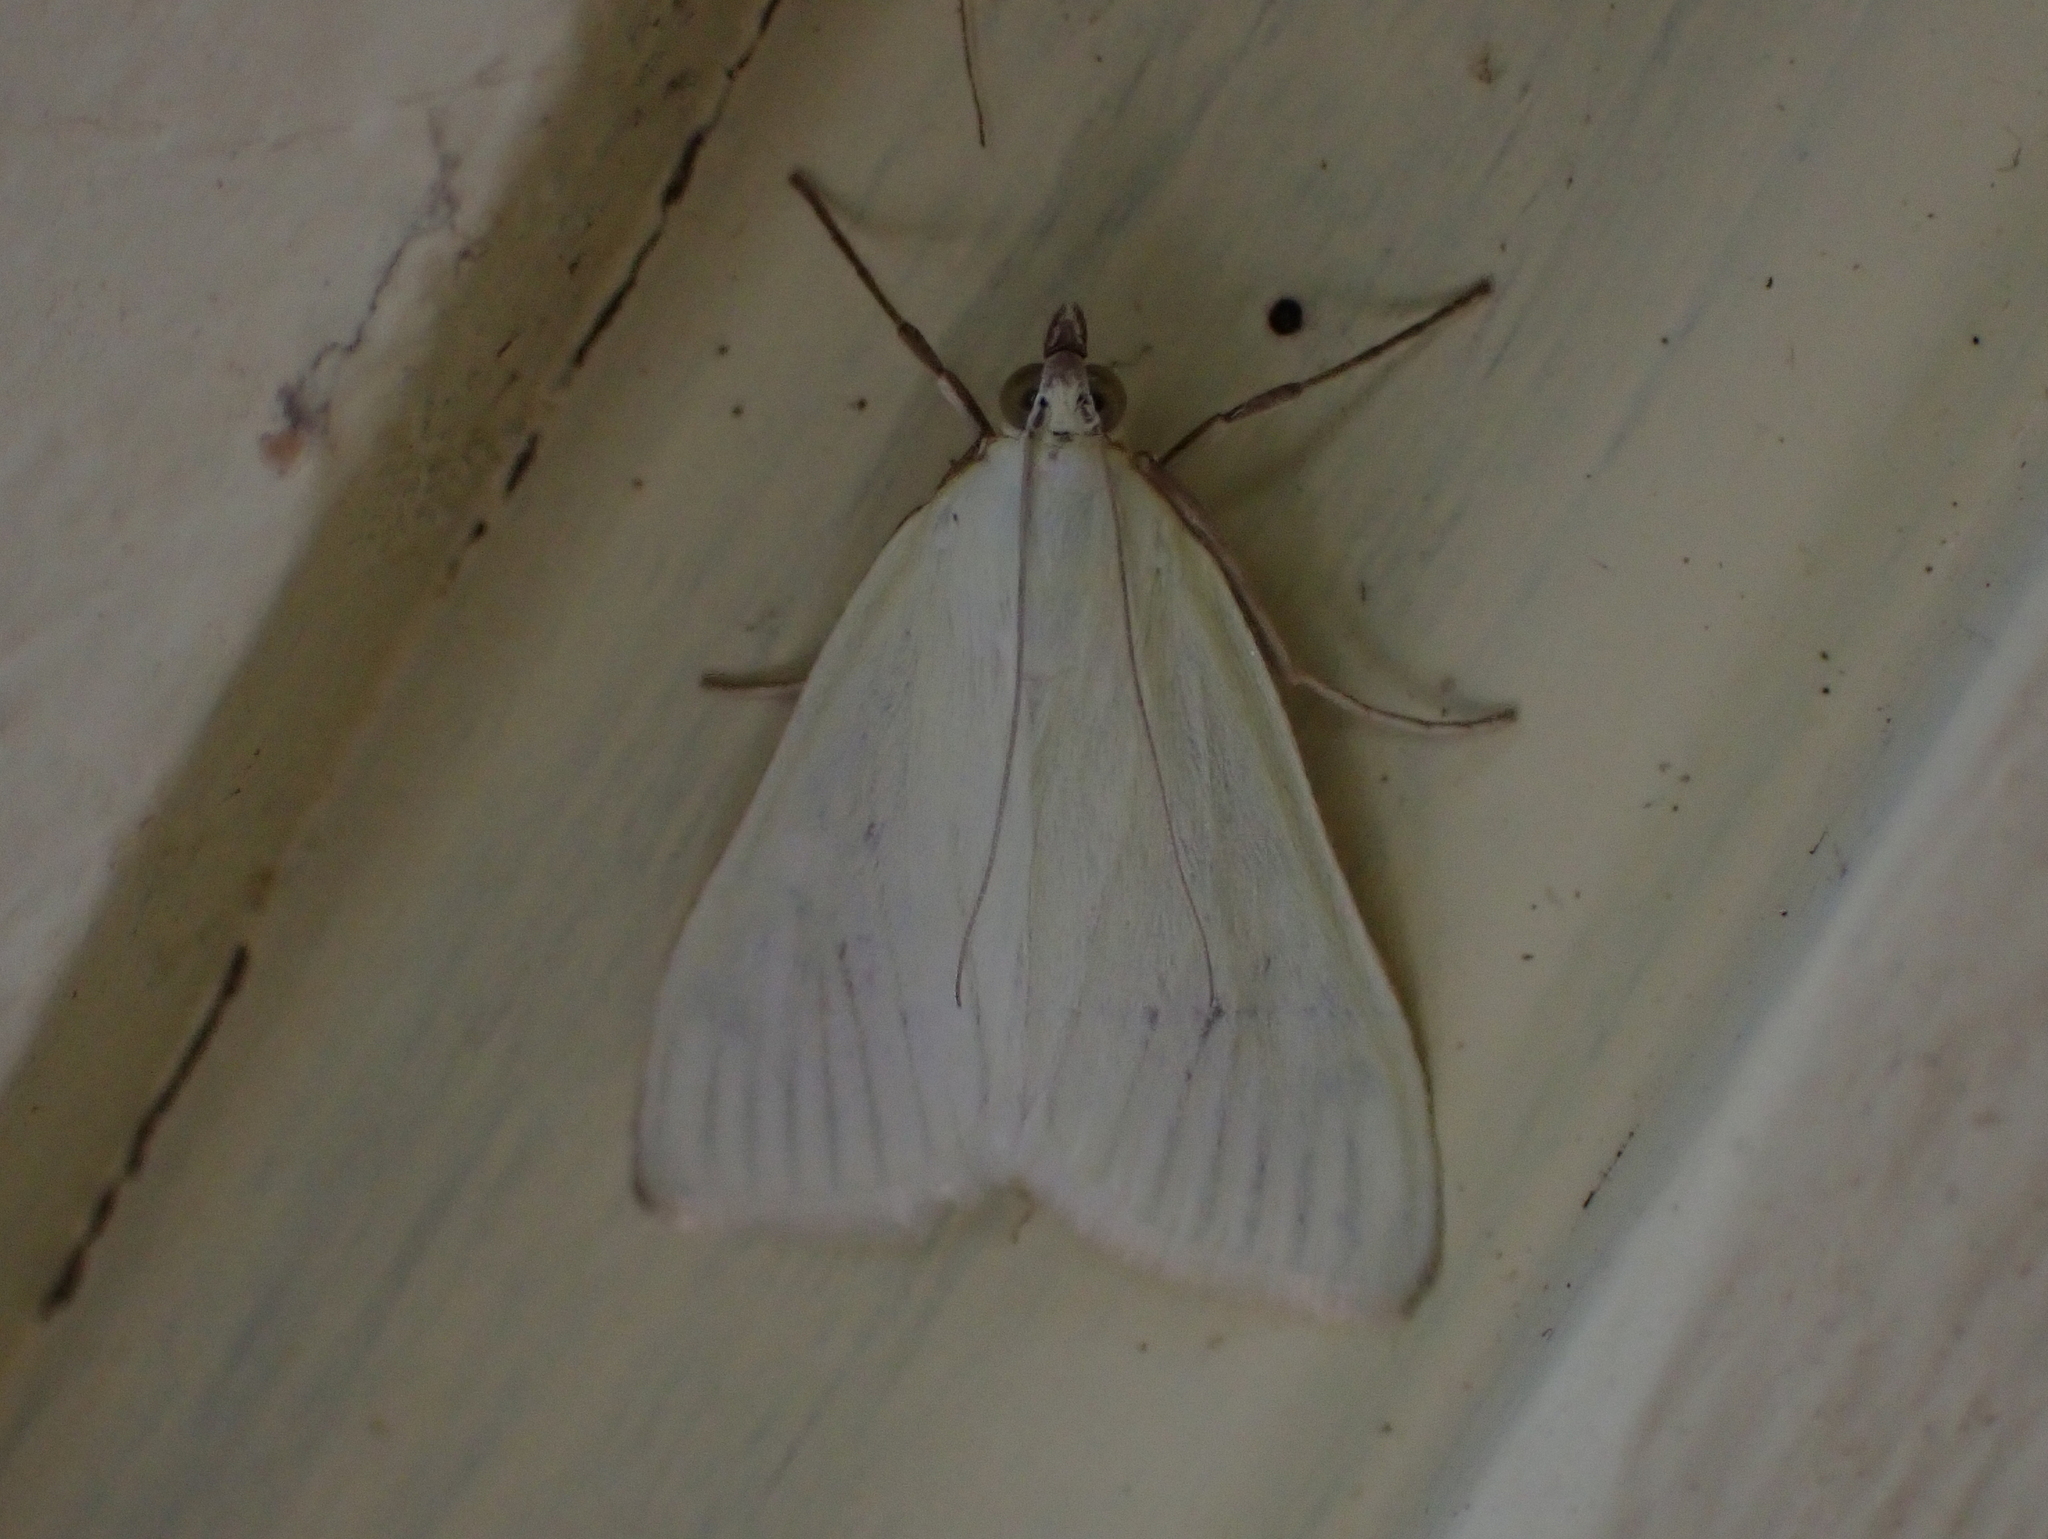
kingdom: Animalia
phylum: Arthropoda
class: Insecta
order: Lepidoptera
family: Crambidae
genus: Sitochroa
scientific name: Sitochroa palealis
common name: Greenish-yellow sitochroa moth
